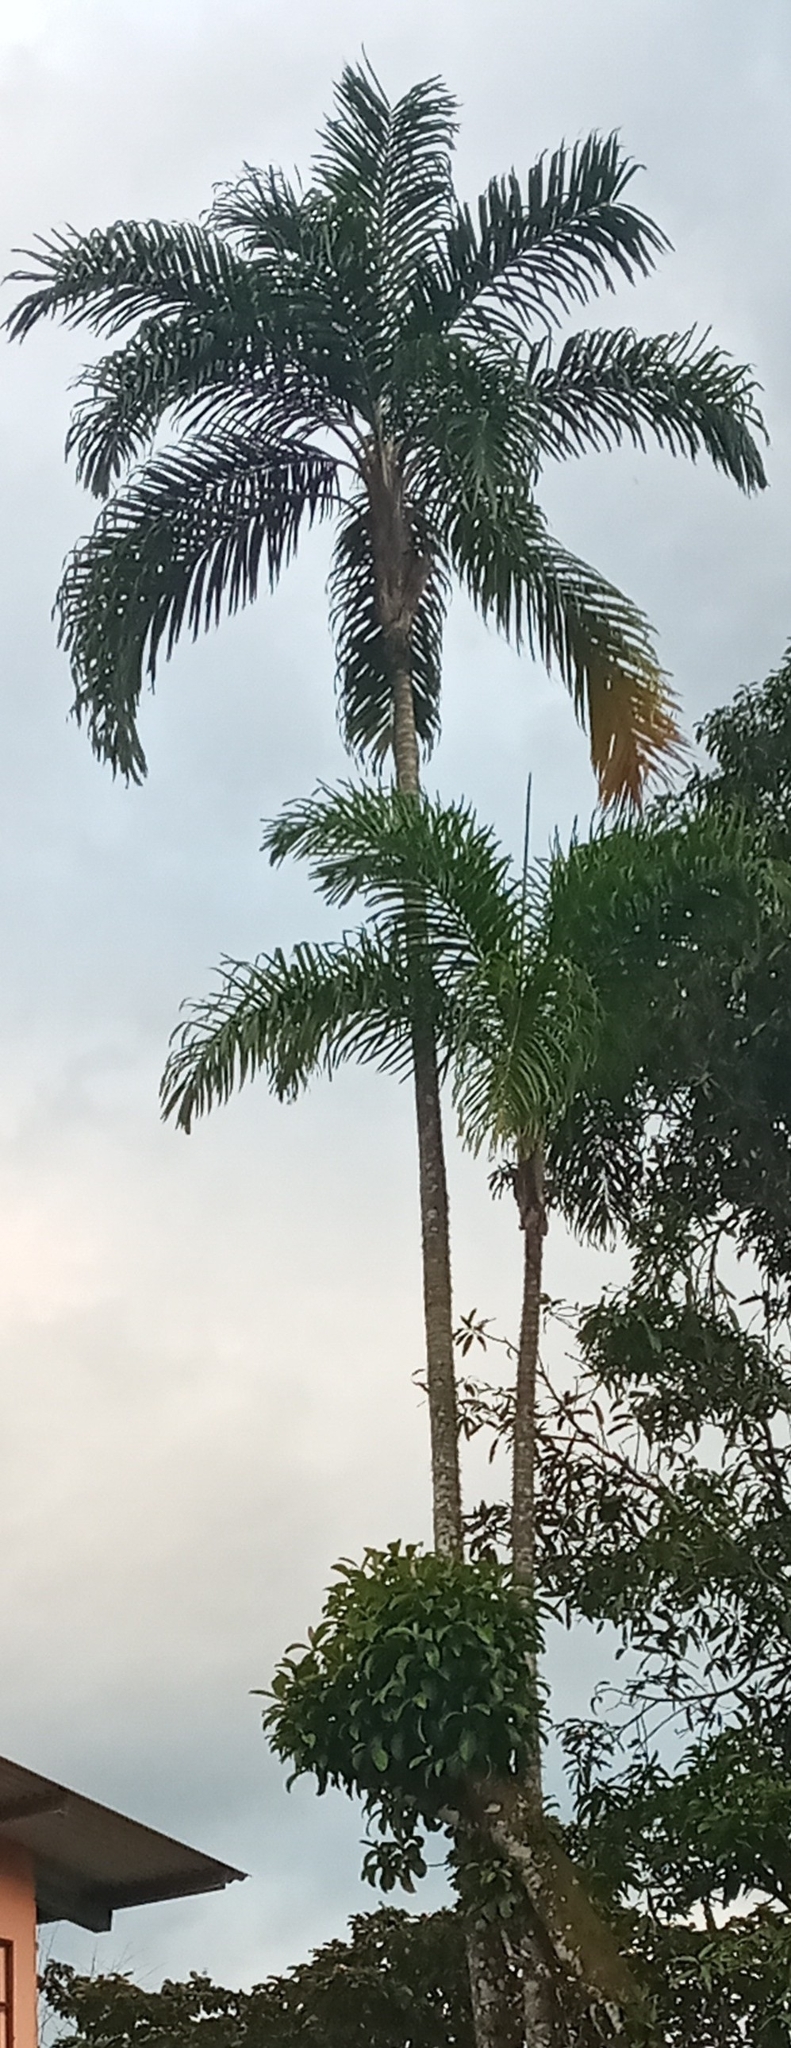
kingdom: Plantae
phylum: Tracheophyta
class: Liliopsida
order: Arecales
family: Arecaceae
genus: Bactris
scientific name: Bactris gasipaes
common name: Peach palm
